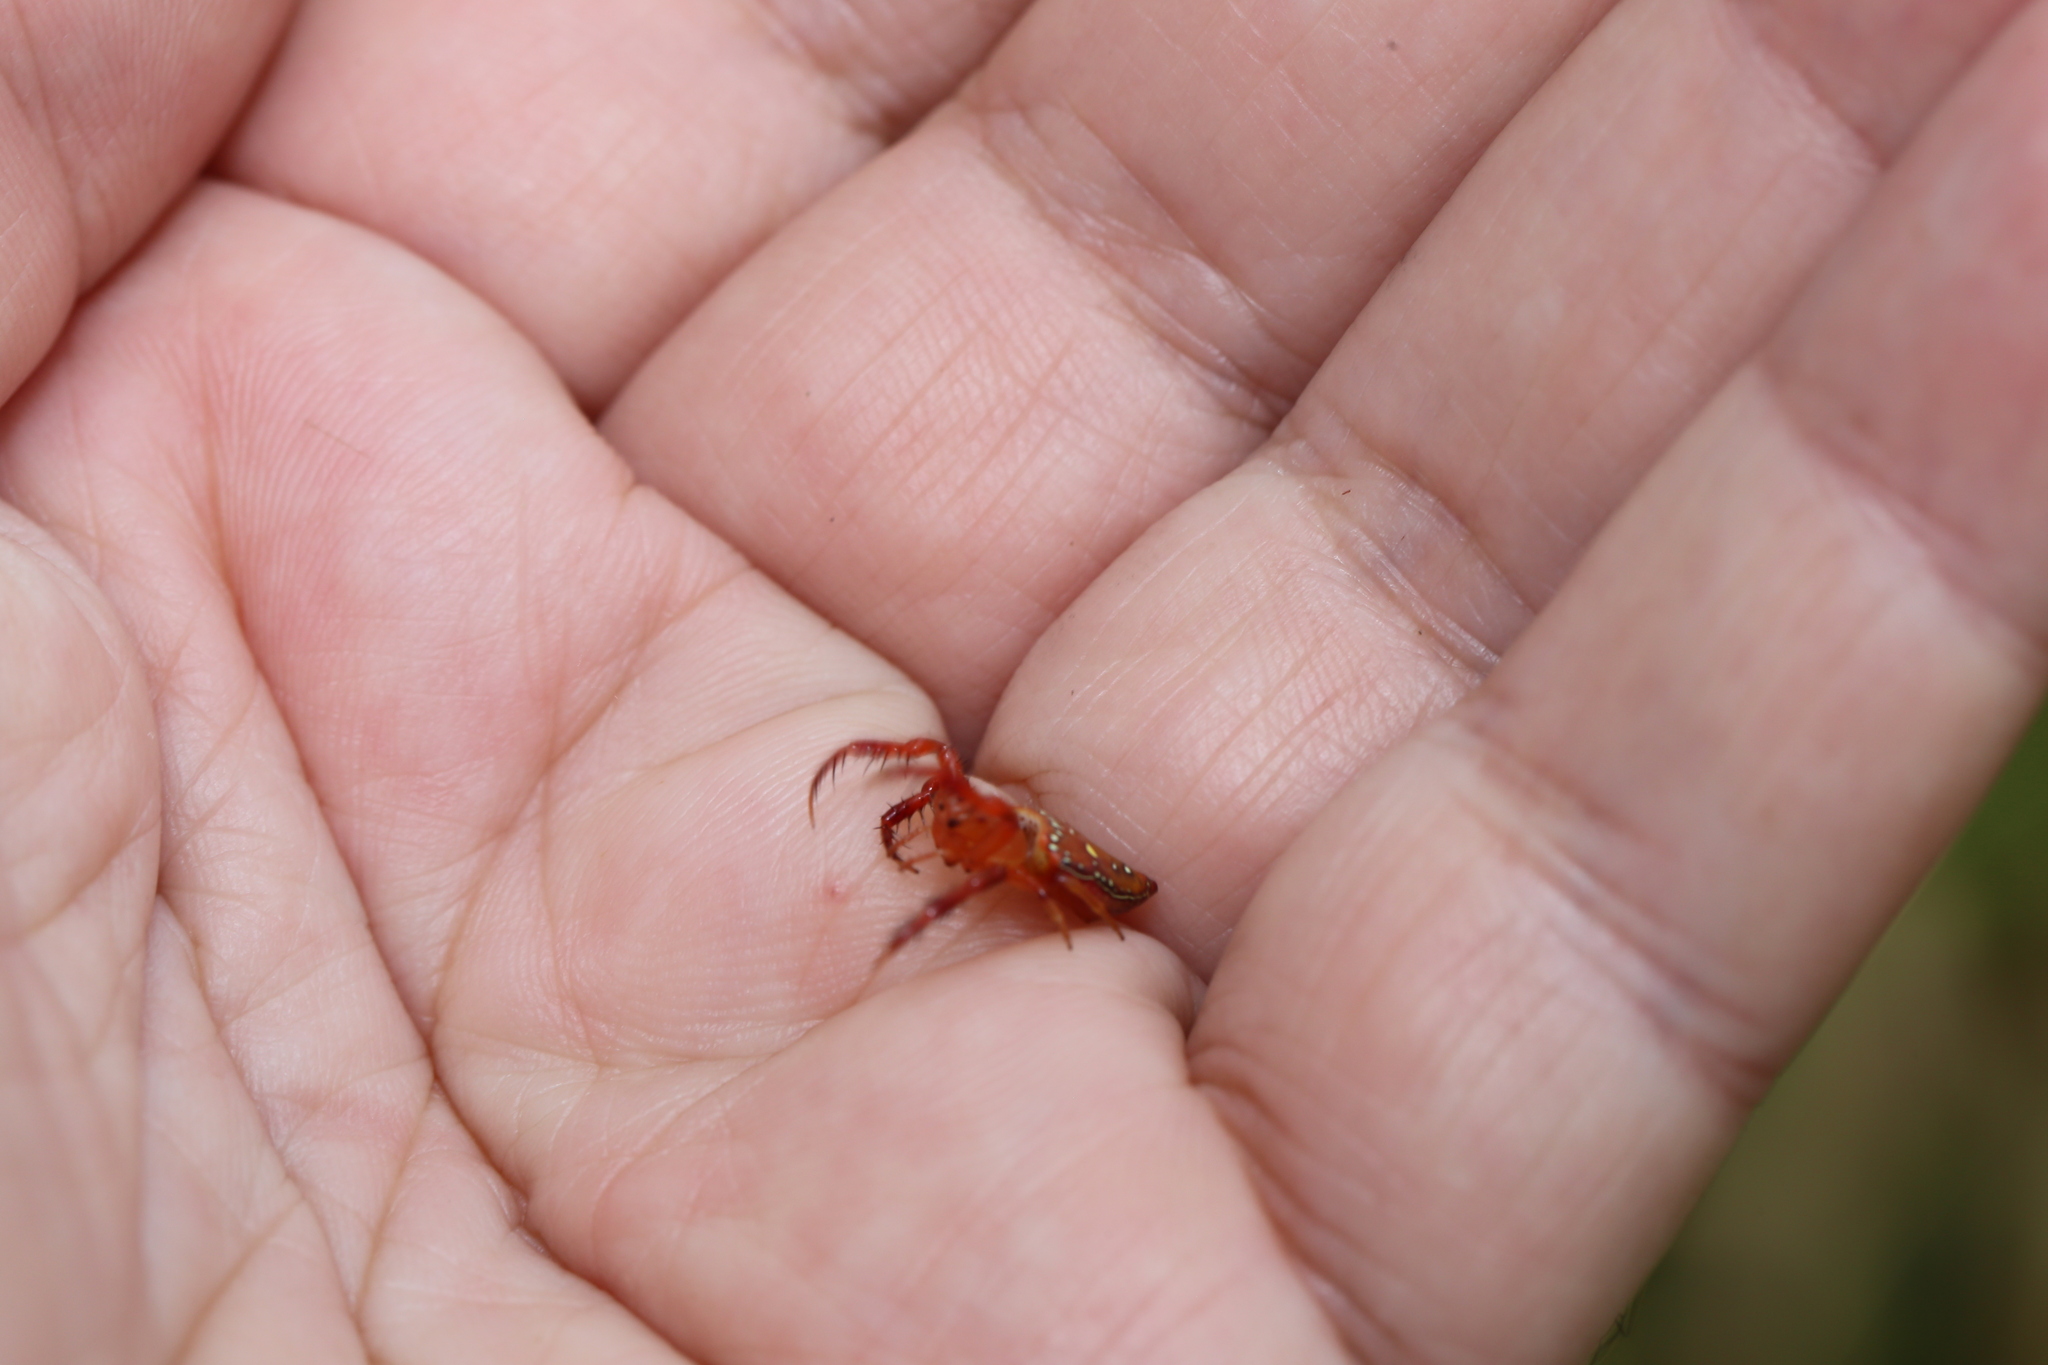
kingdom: Animalia
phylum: Arthropoda
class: Arachnida
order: Araneae
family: Arkyidae
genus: Arkys
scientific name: Arkys lancearius
